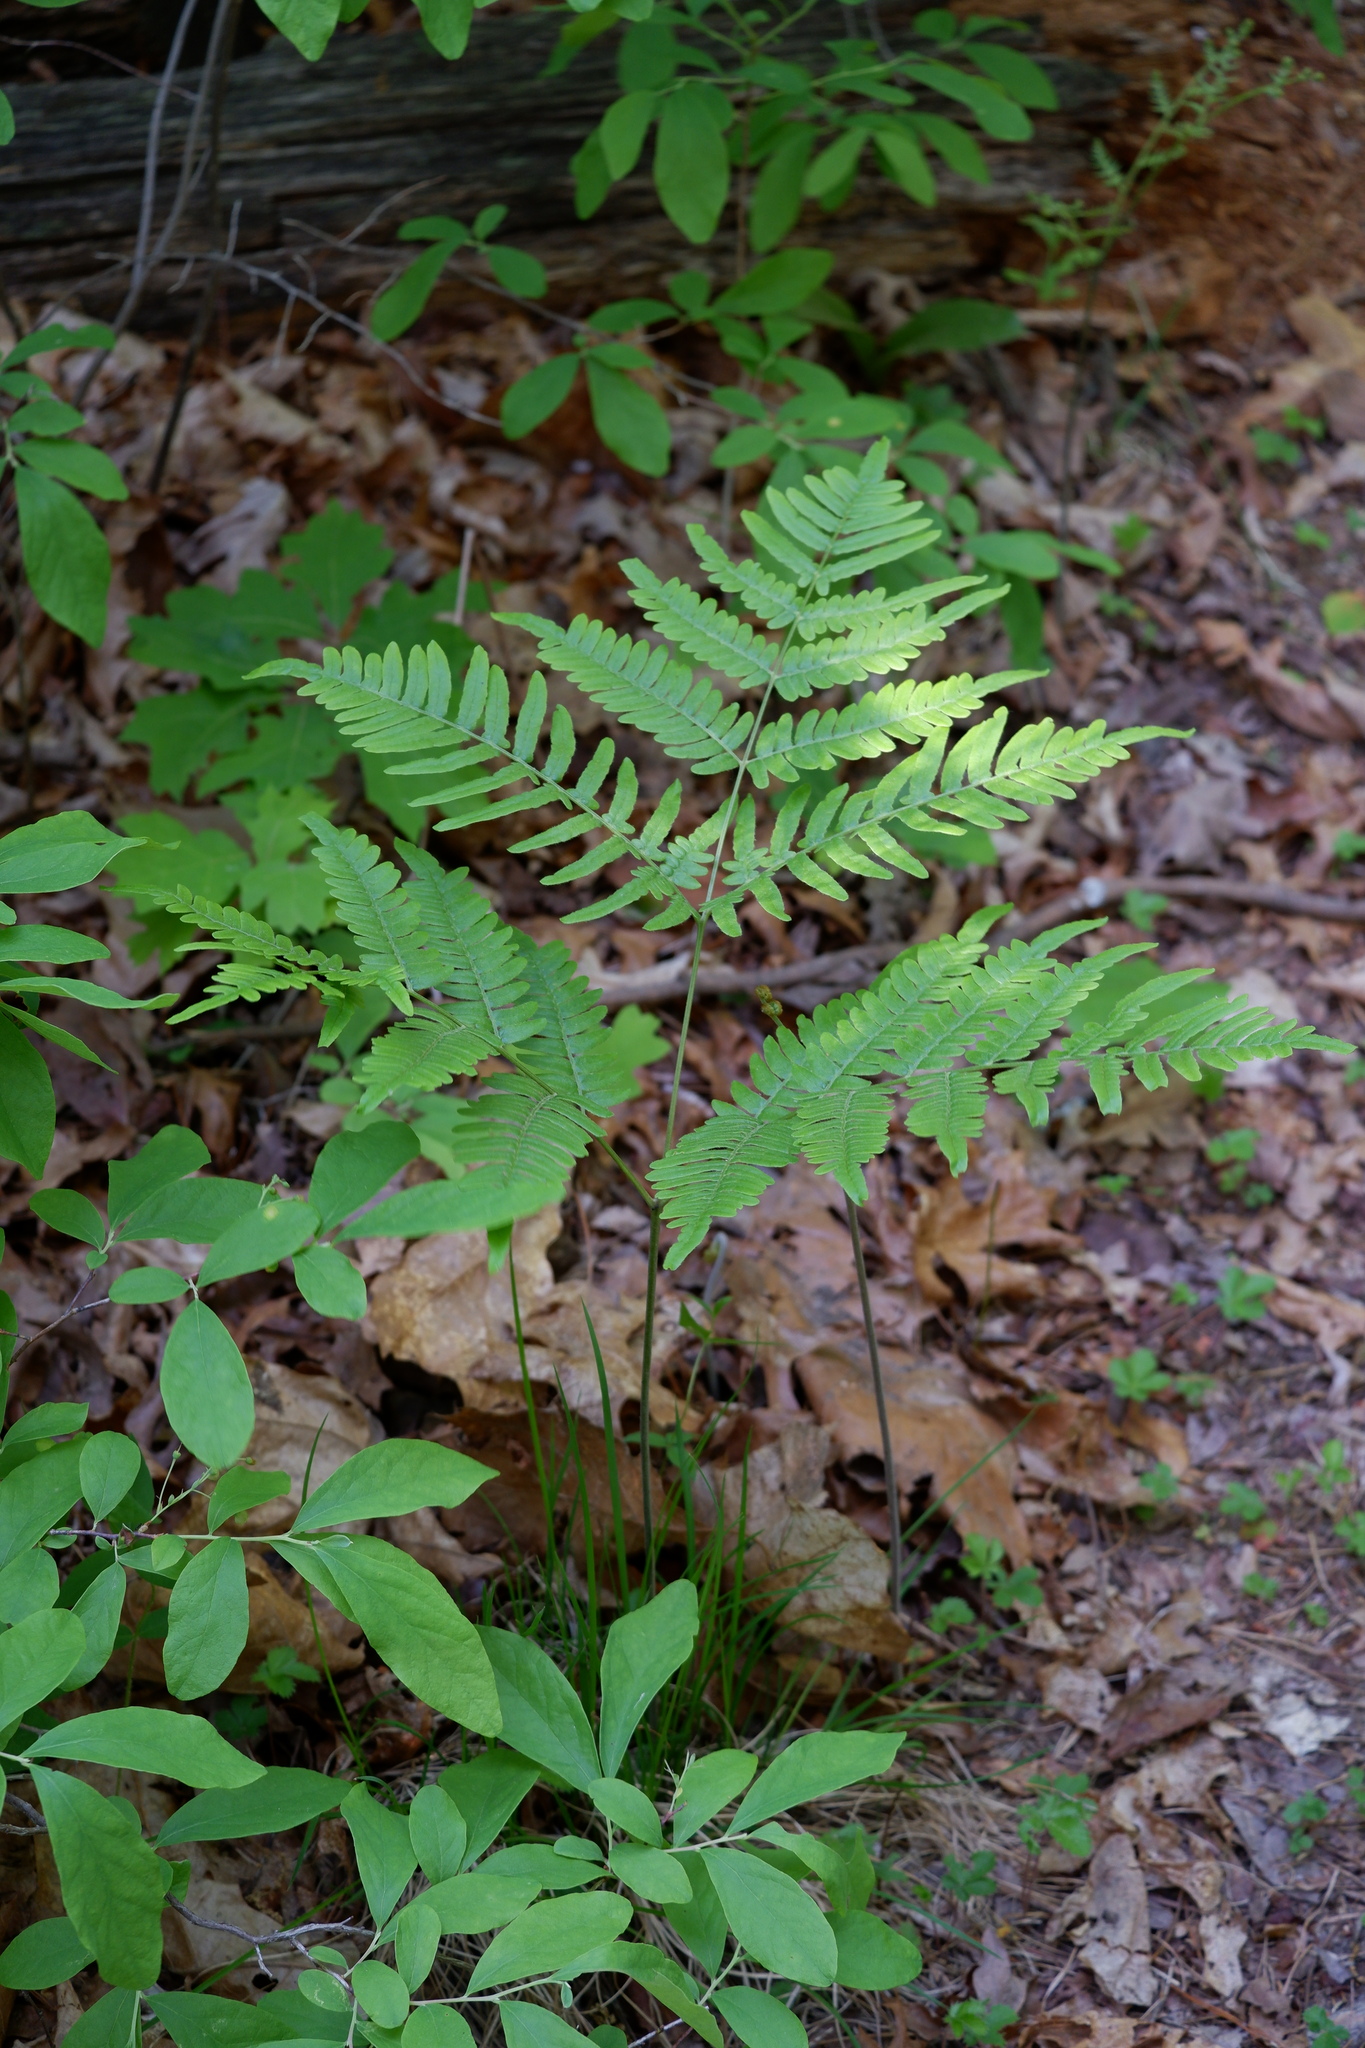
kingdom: Plantae
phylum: Tracheophyta
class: Polypodiopsida
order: Polypodiales
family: Dennstaedtiaceae
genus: Pteridium
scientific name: Pteridium aquilinum
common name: Bracken
